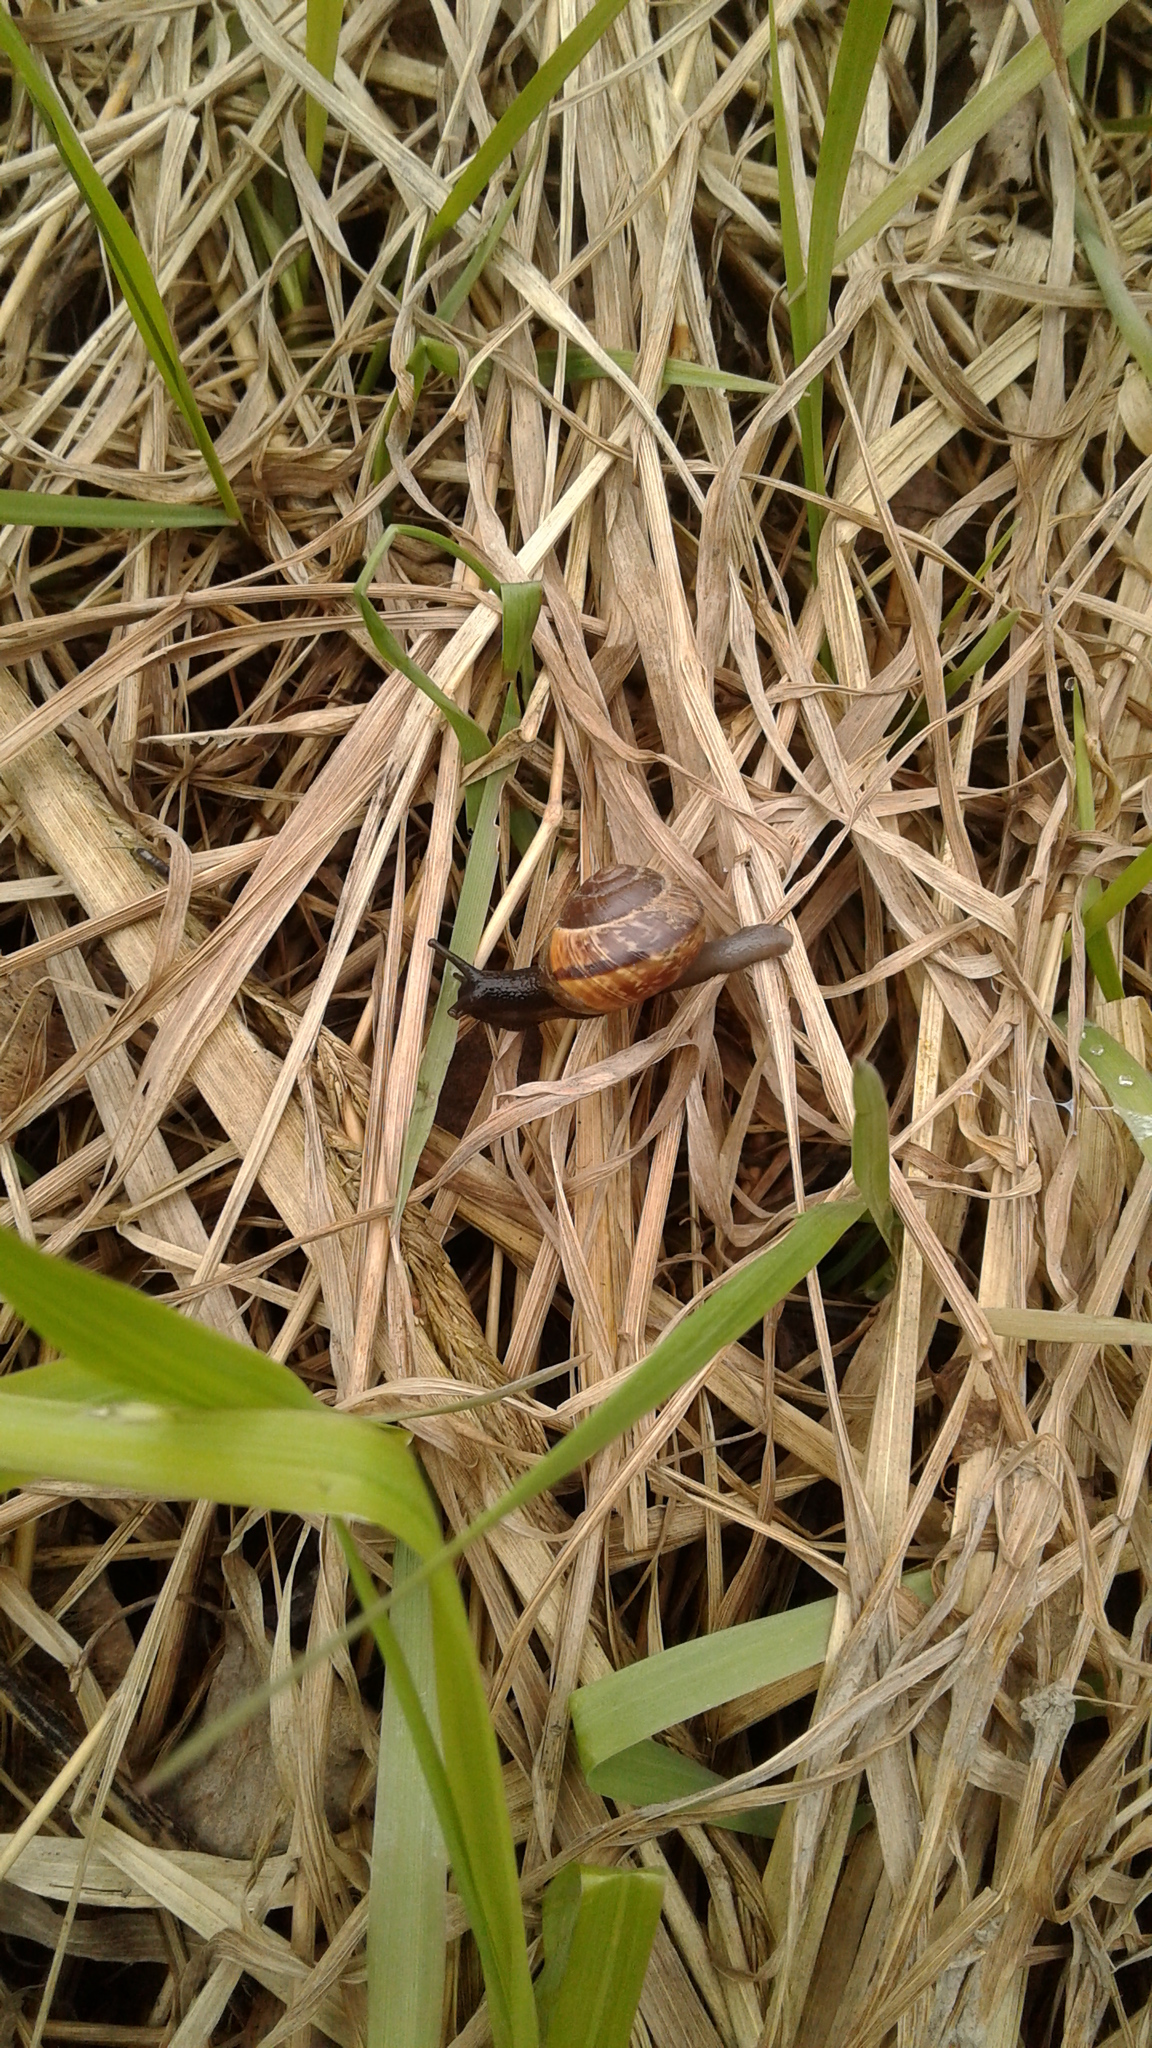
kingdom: Animalia
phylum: Mollusca
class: Gastropoda
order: Stylommatophora
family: Helicidae
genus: Arianta
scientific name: Arianta arbustorum
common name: Copse snail
